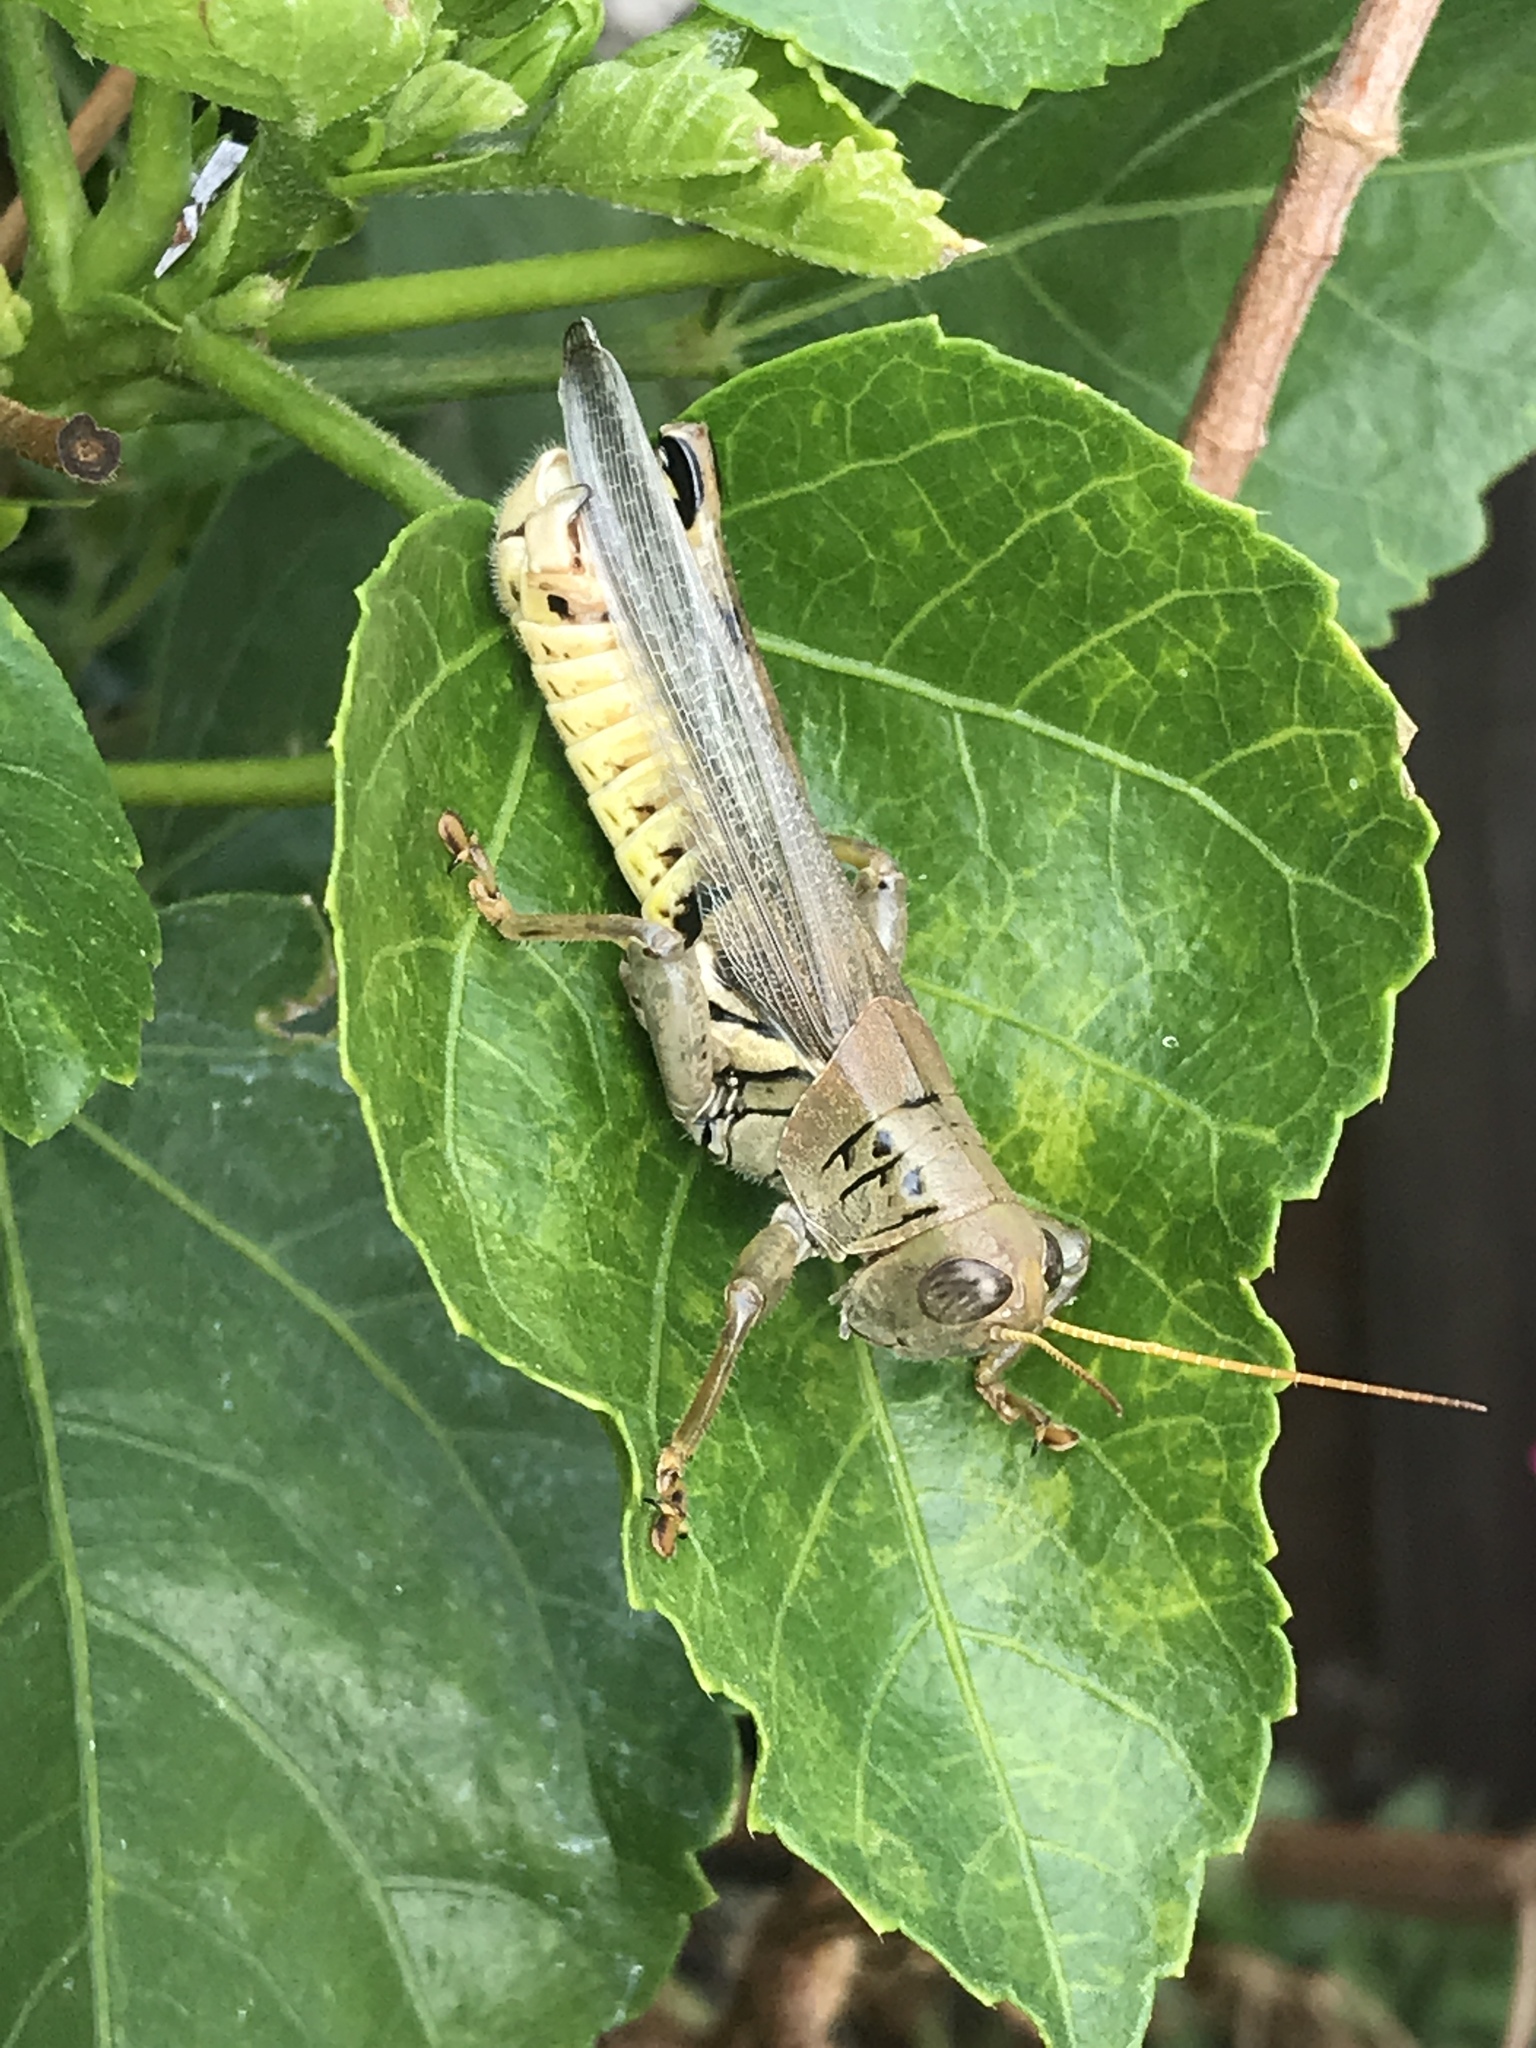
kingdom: Animalia
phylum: Arthropoda
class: Insecta
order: Orthoptera
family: Acrididae
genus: Melanoplus
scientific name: Melanoplus differentialis
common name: Differential grasshopper
